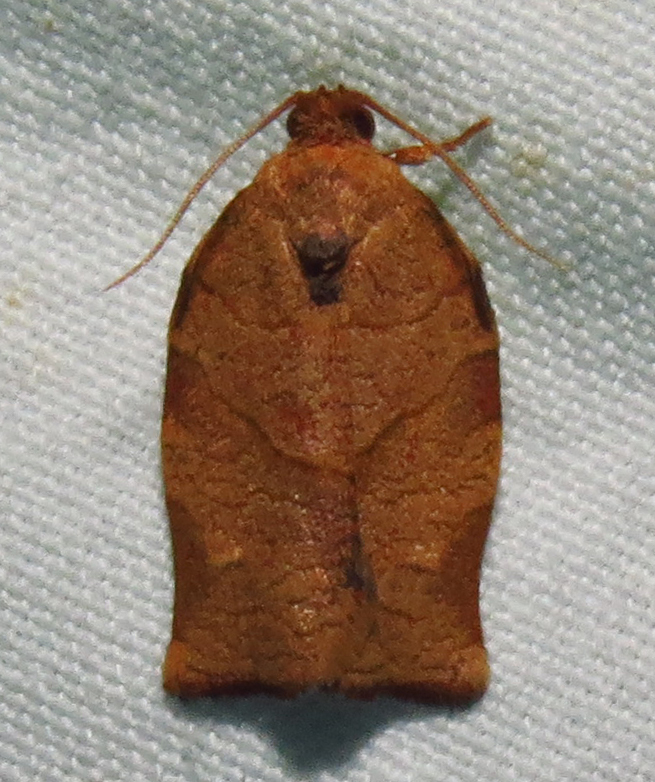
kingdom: Animalia
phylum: Arthropoda
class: Insecta
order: Lepidoptera
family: Tortricidae
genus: Choristoneura
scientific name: Choristoneura rosaceana
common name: Oblique-banded leafroller moth
